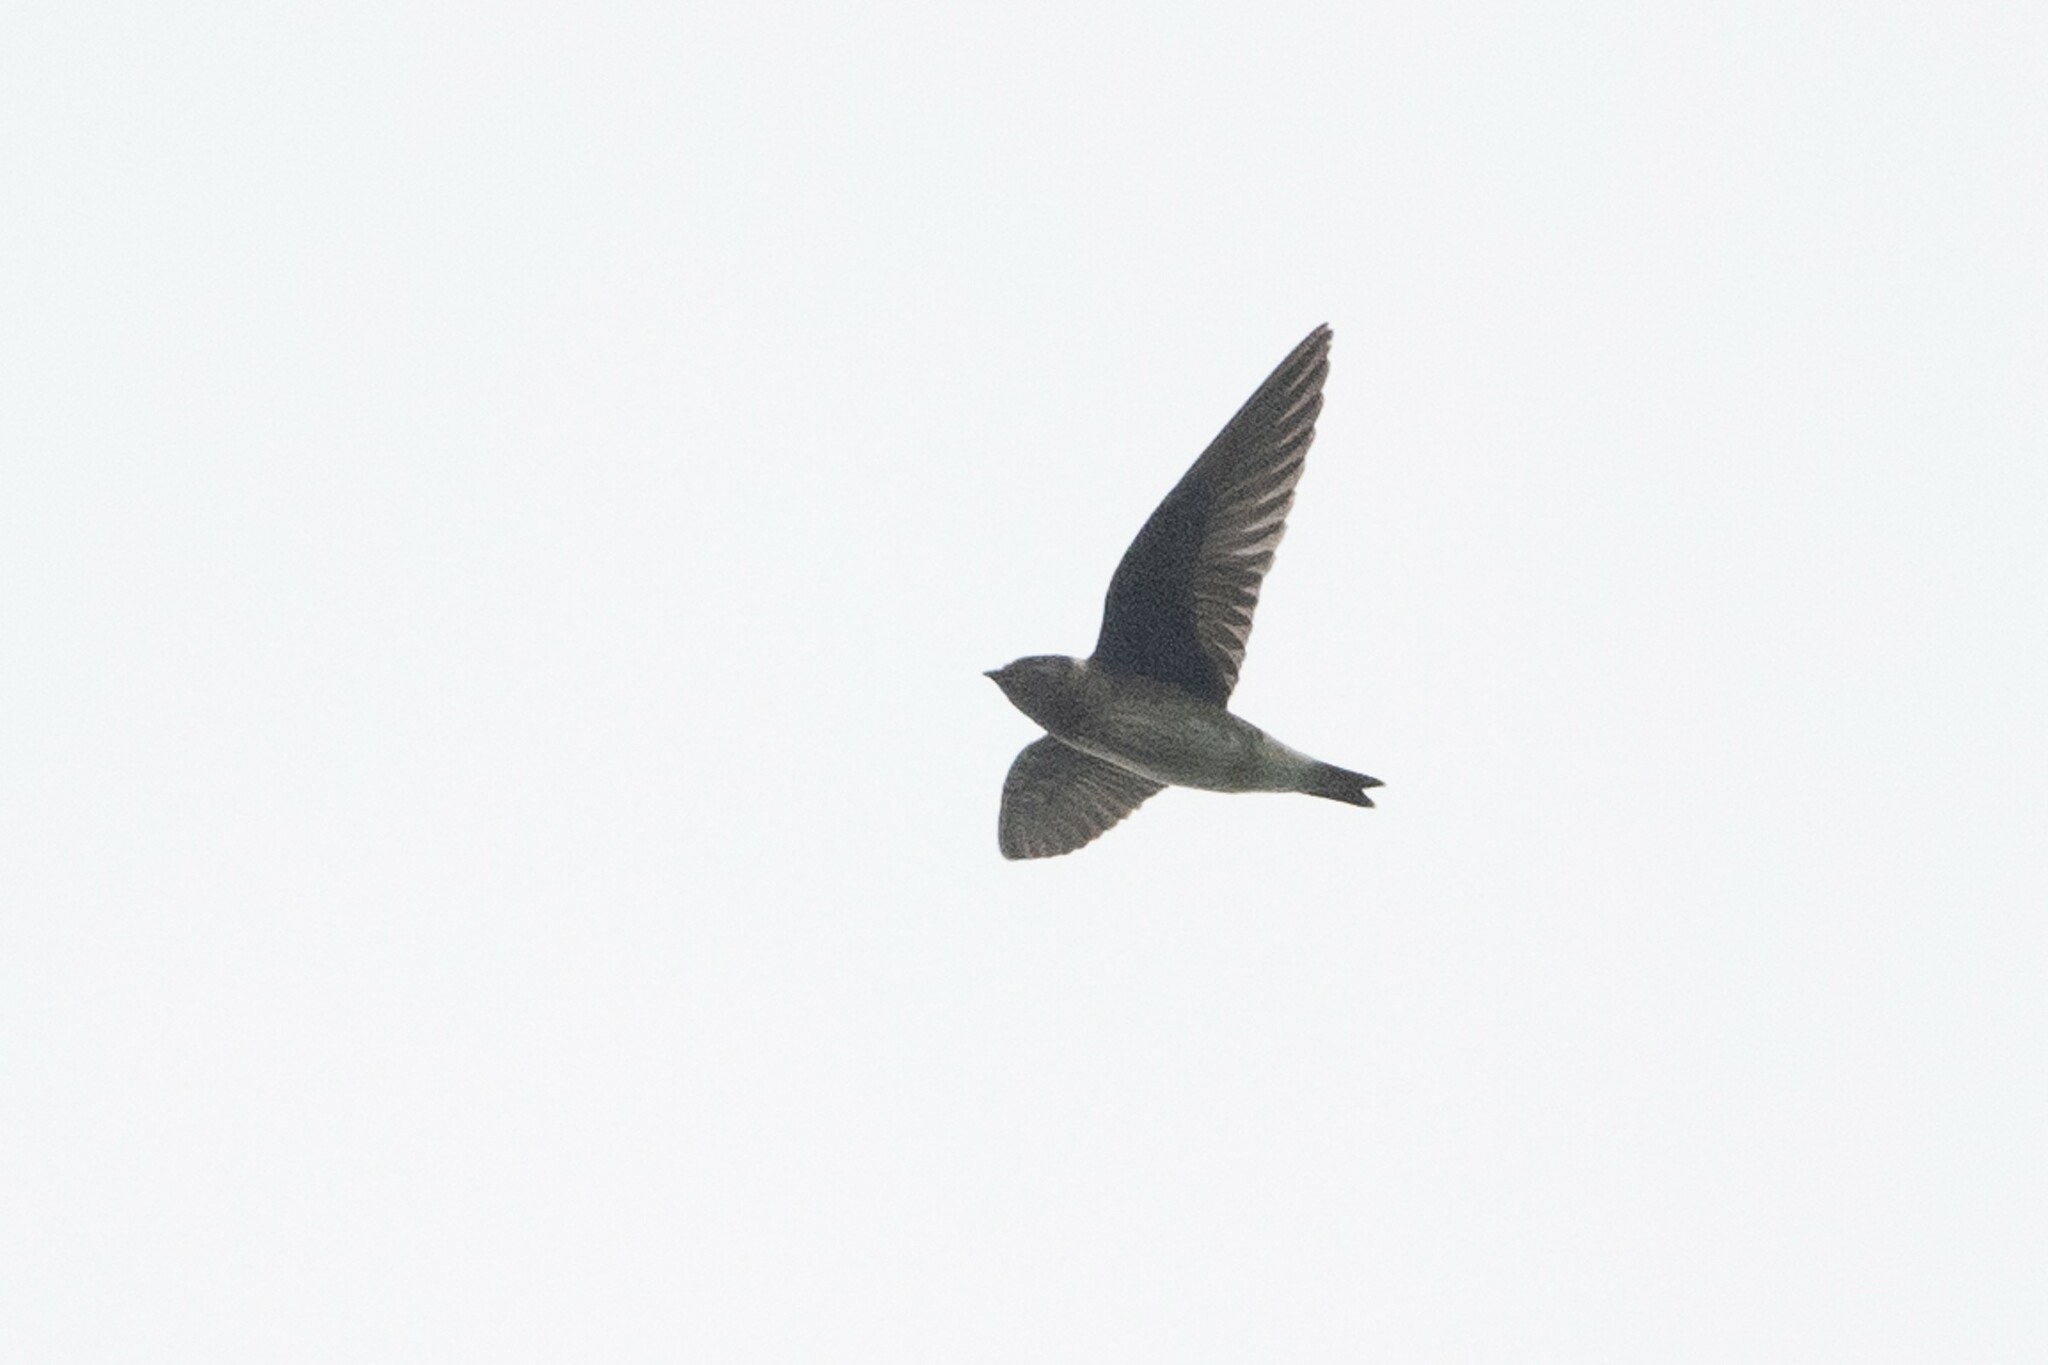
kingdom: Animalia
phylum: Chordata
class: Aves
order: Passeriformes
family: Hirundinidae
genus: Progne
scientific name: Progne subis
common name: Purple martin
